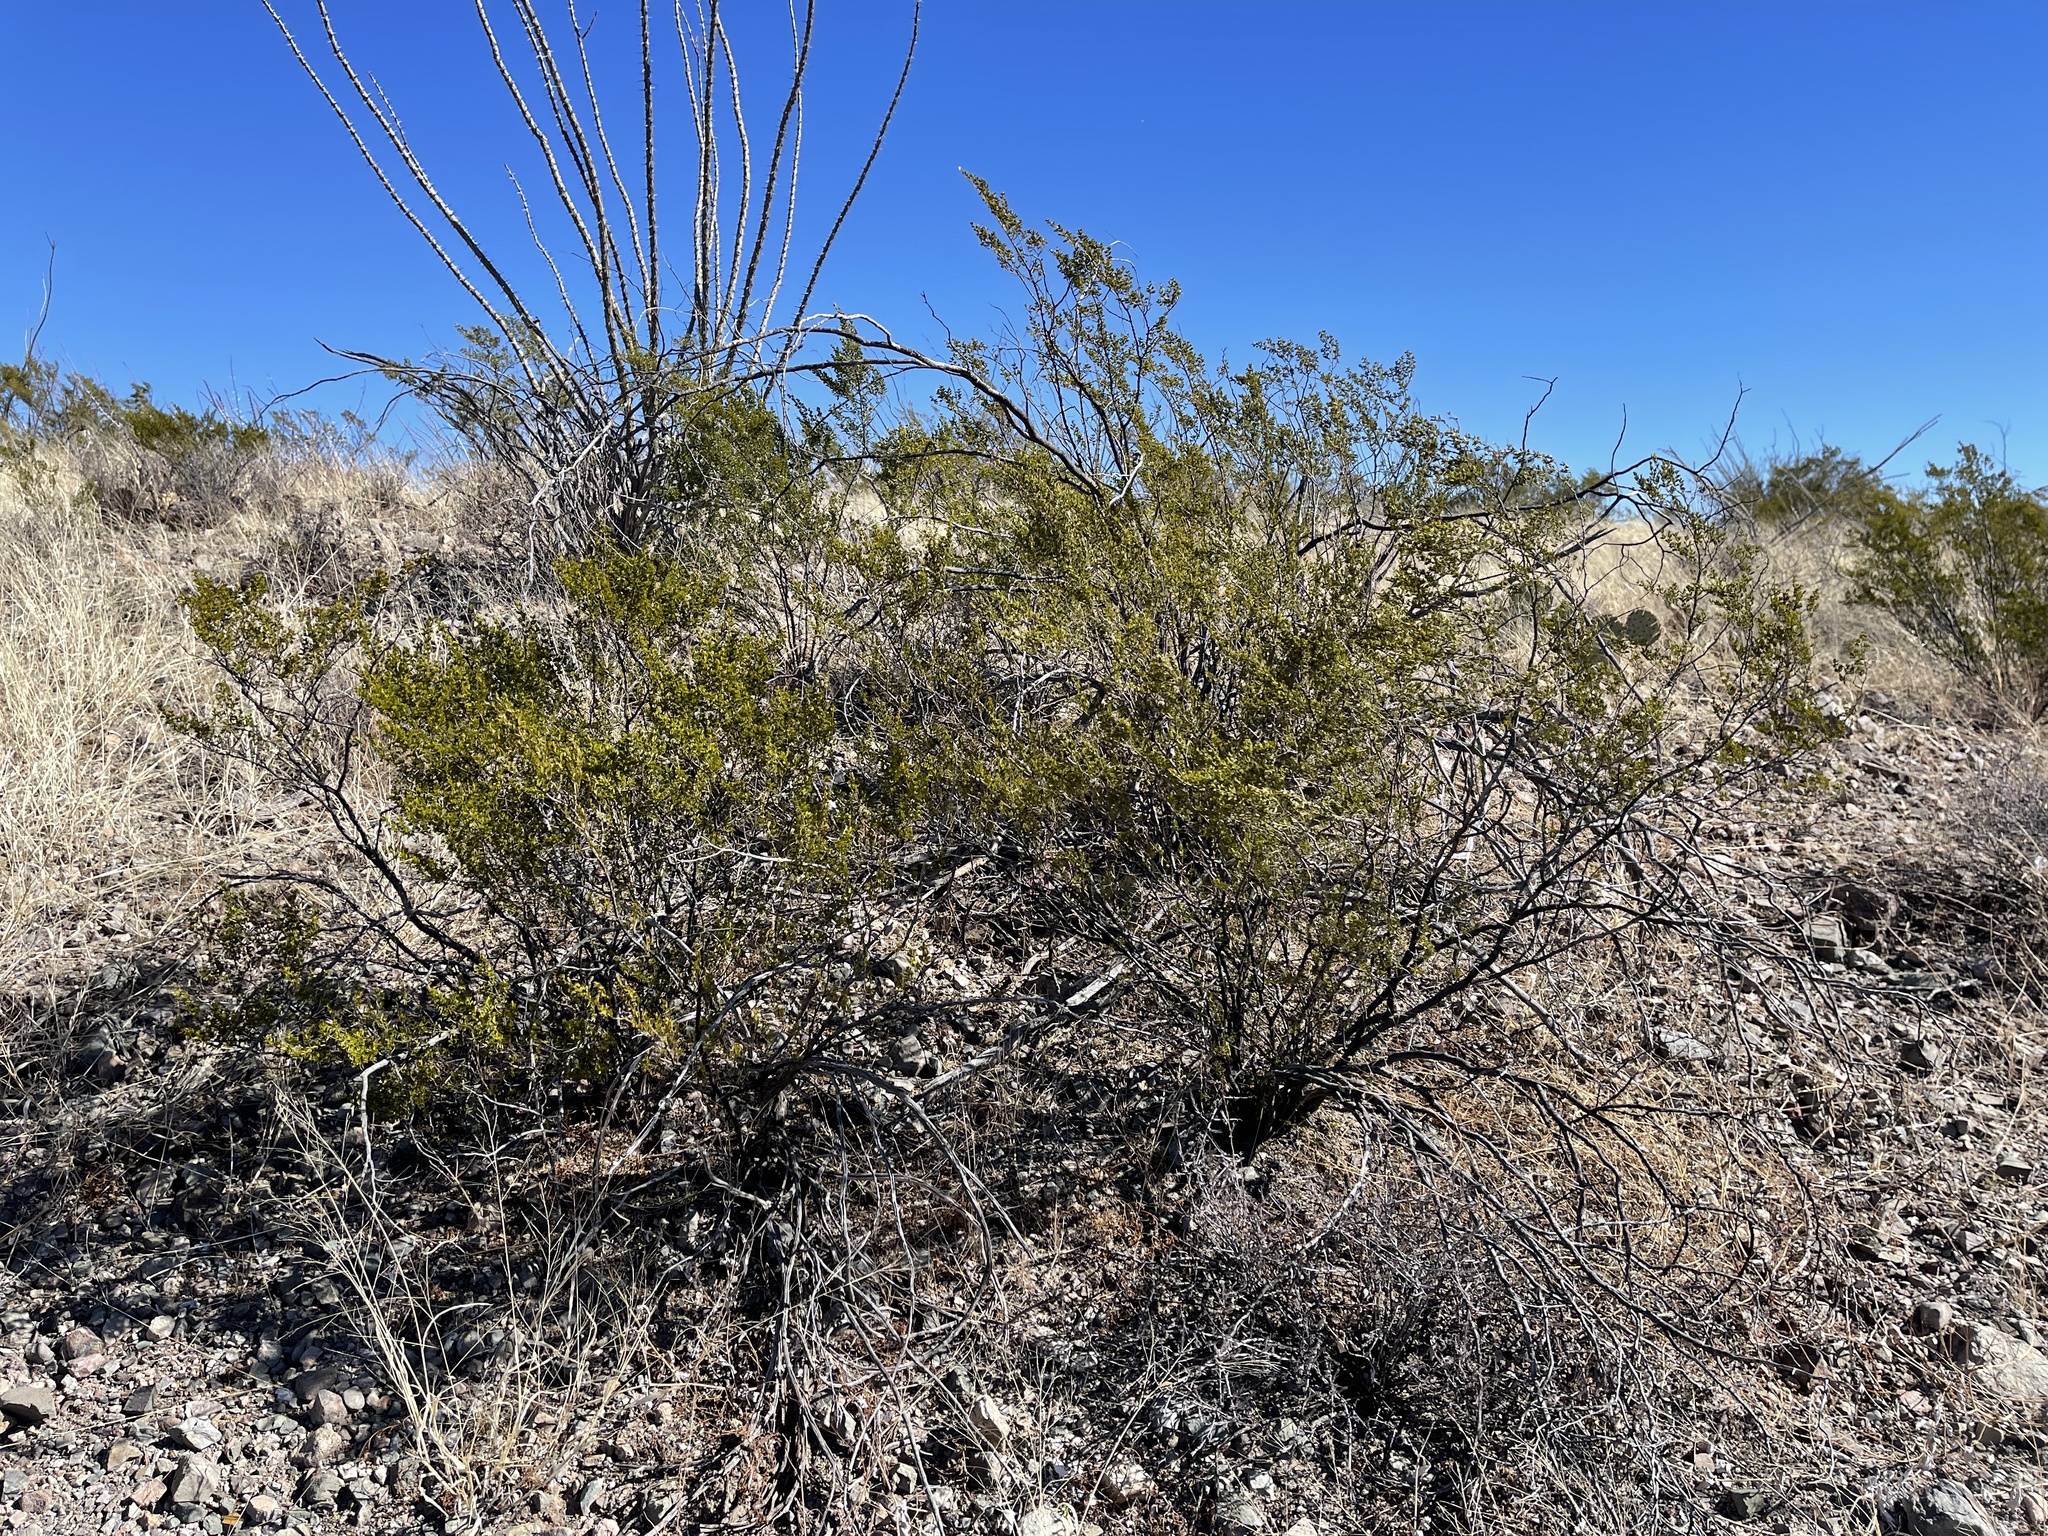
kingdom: Plantae
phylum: Tracheophyta
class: Magnoliopsida
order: Zygophyllales
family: Zygophyllaceae
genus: Larrea
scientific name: Larrea tridentata
